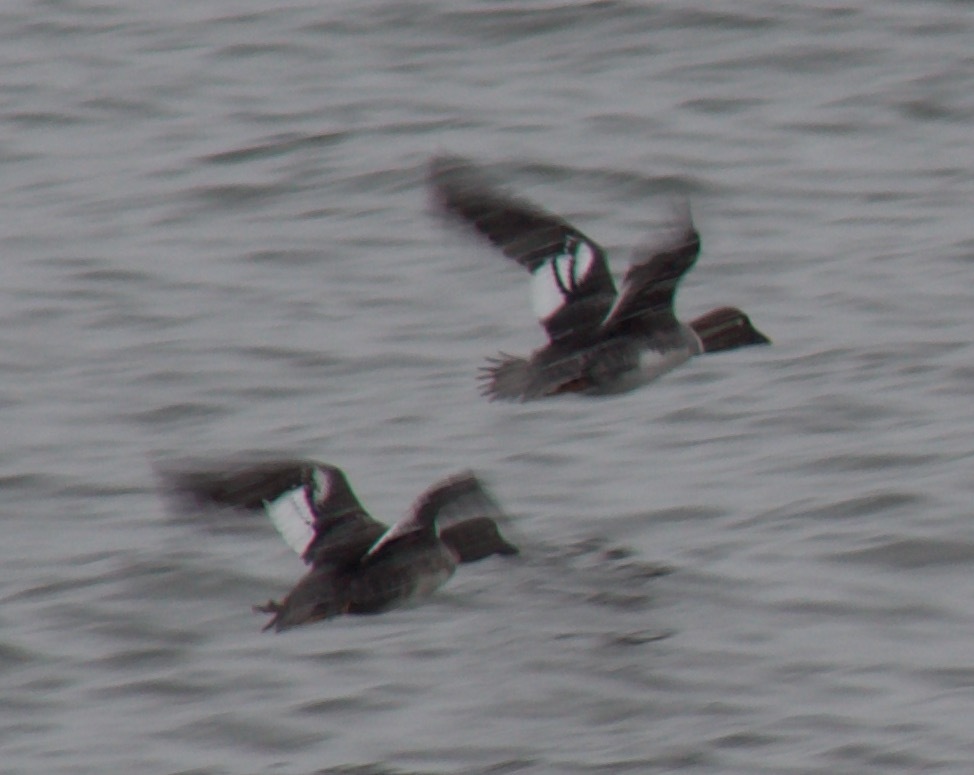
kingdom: Animalia
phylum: Chordata
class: Aves
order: Anseriformes
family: Anatidae
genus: Bucephala
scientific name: Bucephala clangula
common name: Common goldeneye
